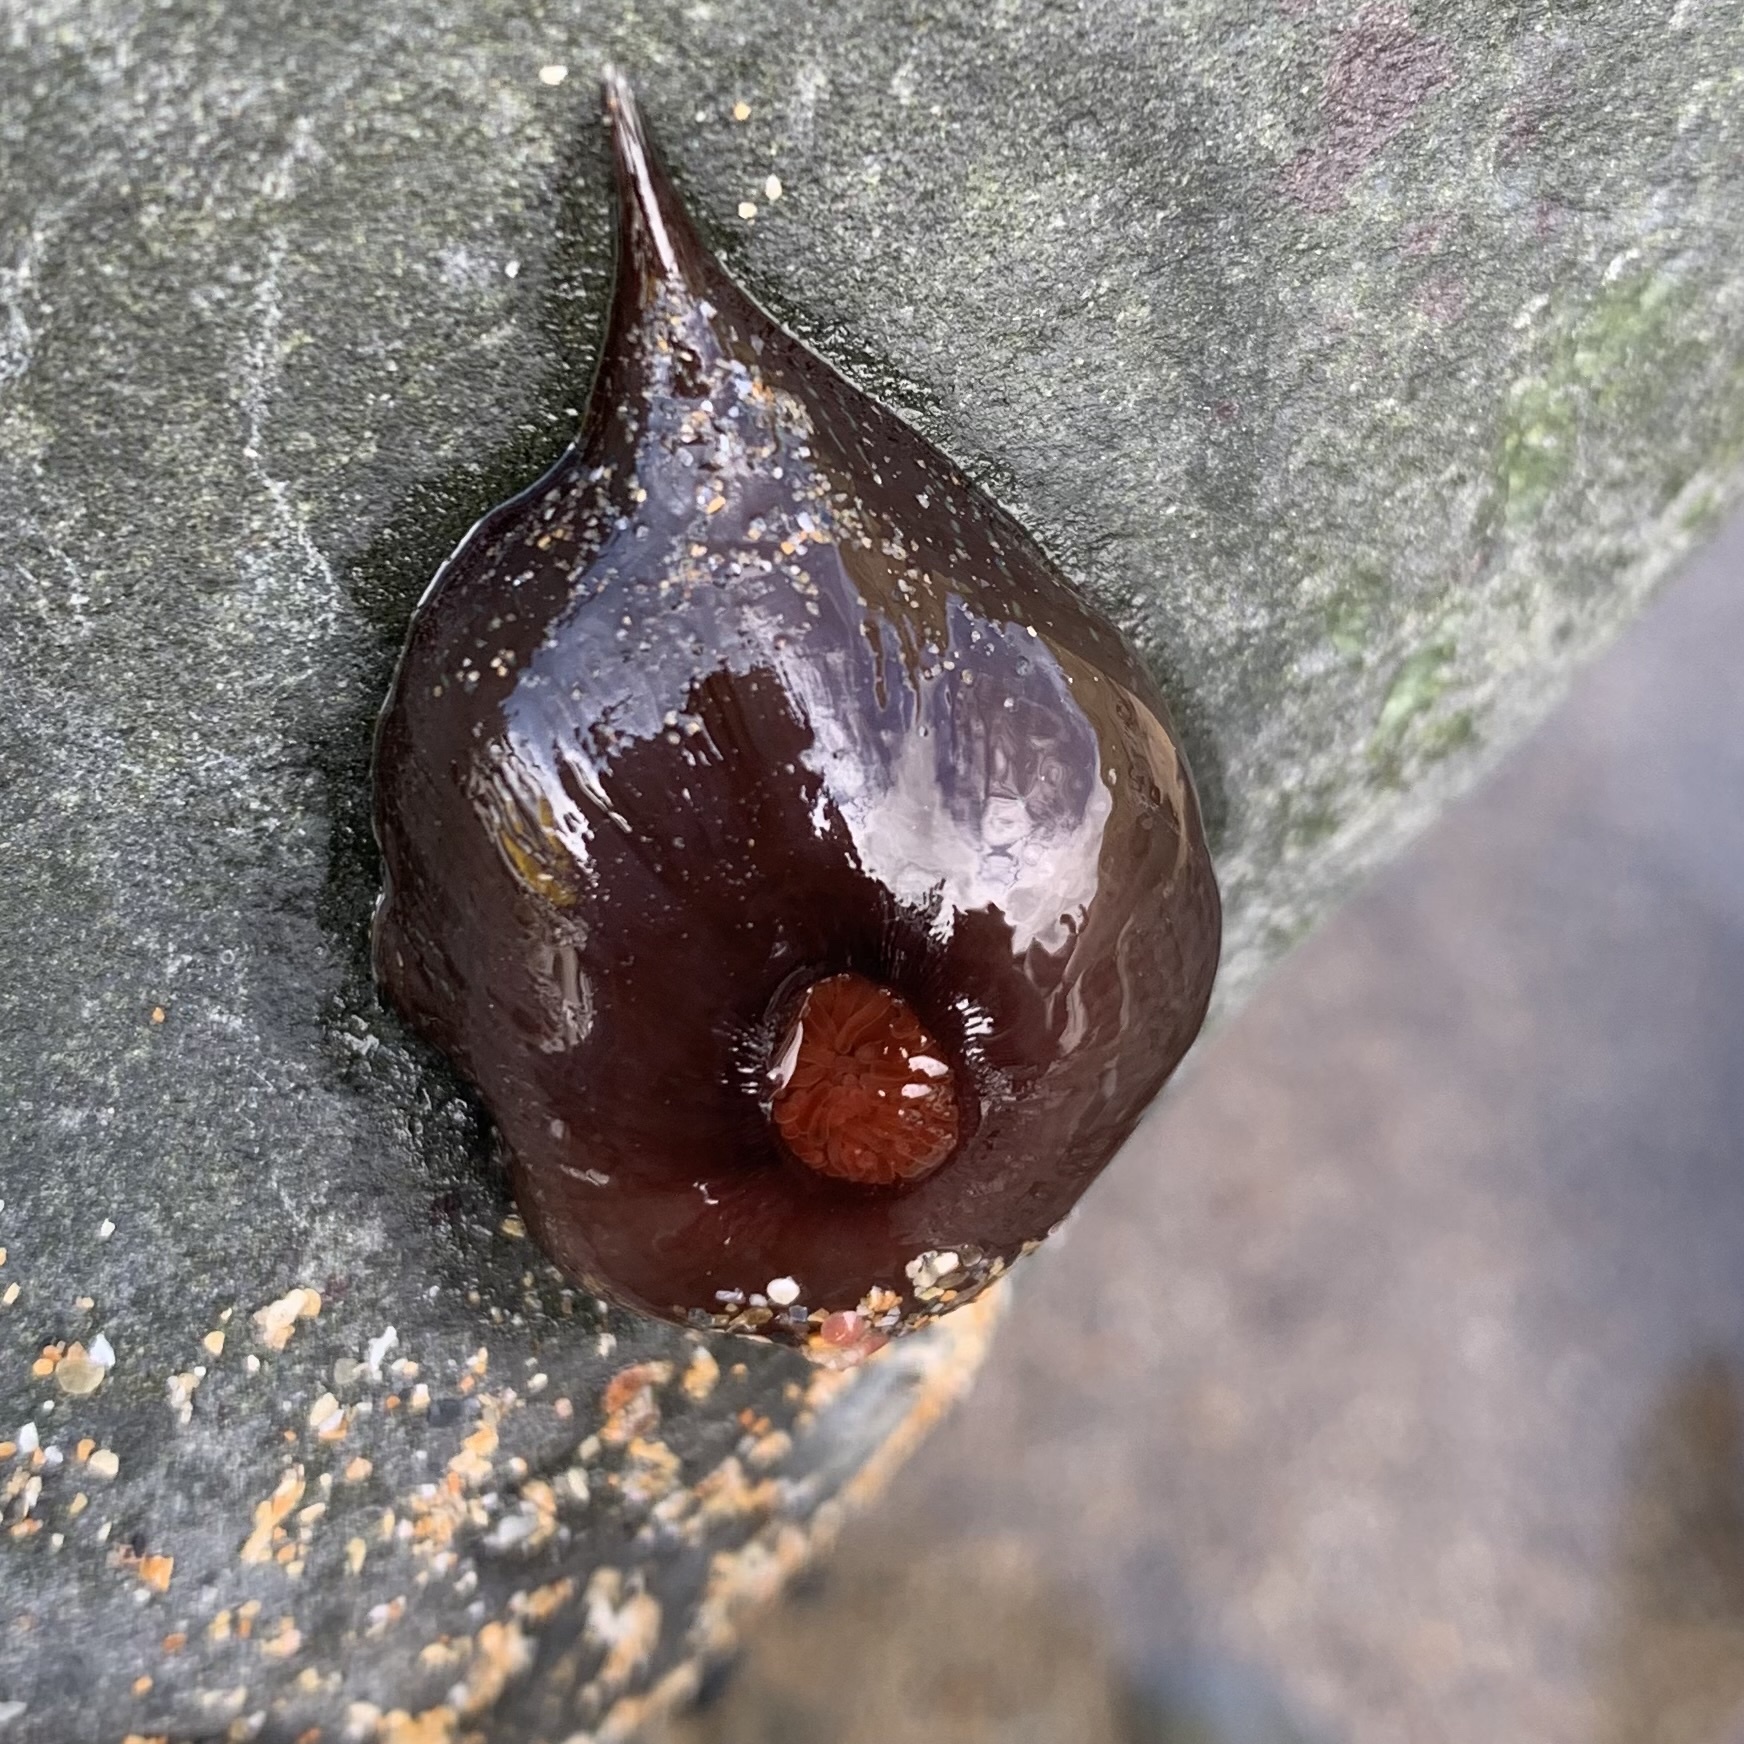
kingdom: Animalia
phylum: Cnidaria
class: Anthozoa
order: Actiniaria
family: Actiniidae
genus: Actinia
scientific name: Actinia equina
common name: Beadlet anemone
